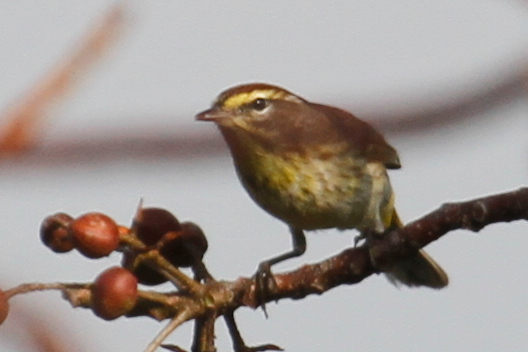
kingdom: Animalia
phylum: Chordata
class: Aves
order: Passeriformes
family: Parulidae
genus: Setophaga
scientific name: Setophaga palmarum
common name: Palm warbler
